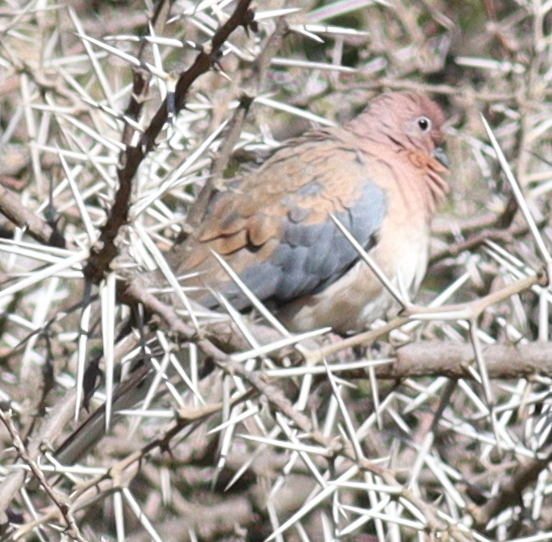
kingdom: Animalia
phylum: Chordata
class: Aves
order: Columbiformes
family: Columbidae
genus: Spilopelia
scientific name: Spilopelia senegalensis
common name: Laughing dove
